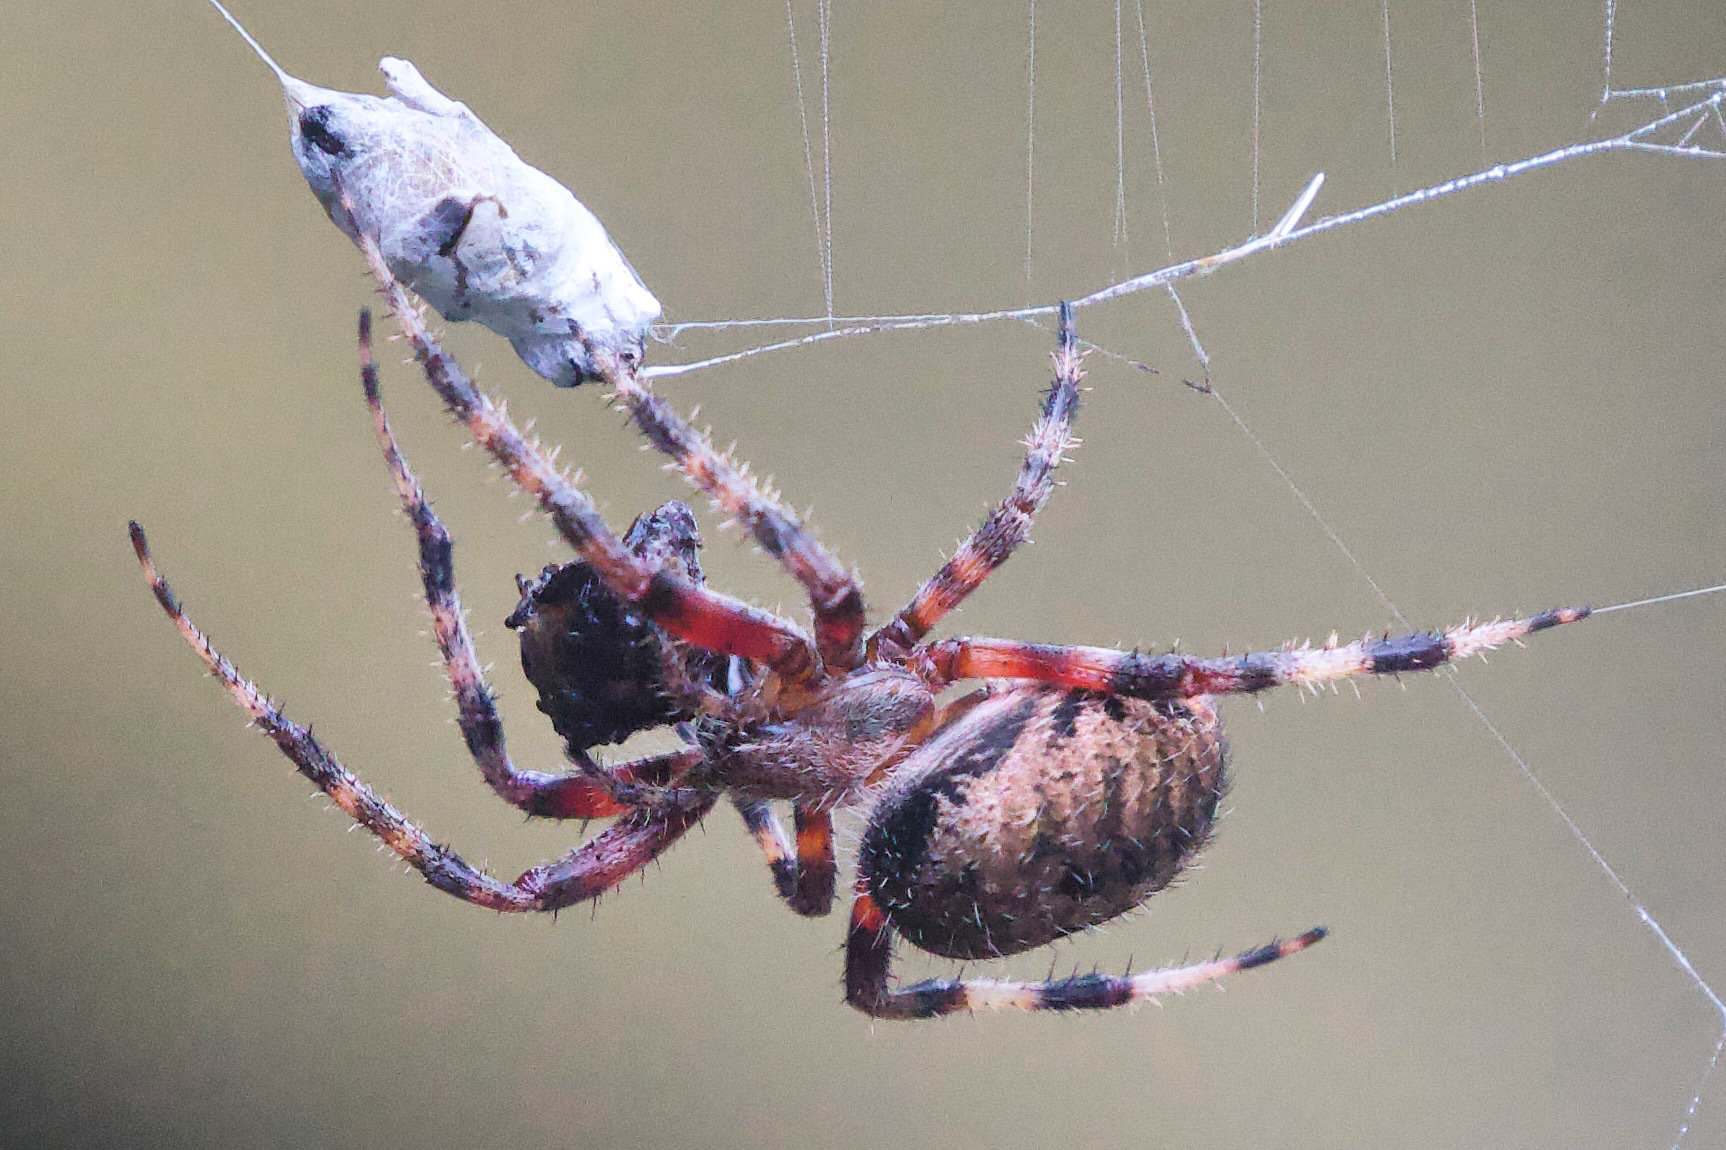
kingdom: Animalia
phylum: Arthropoda
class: Arachnida
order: Araneae
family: Araneidae
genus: Neoscona
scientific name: Neoscona crucifera
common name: Spotted orbweaver
